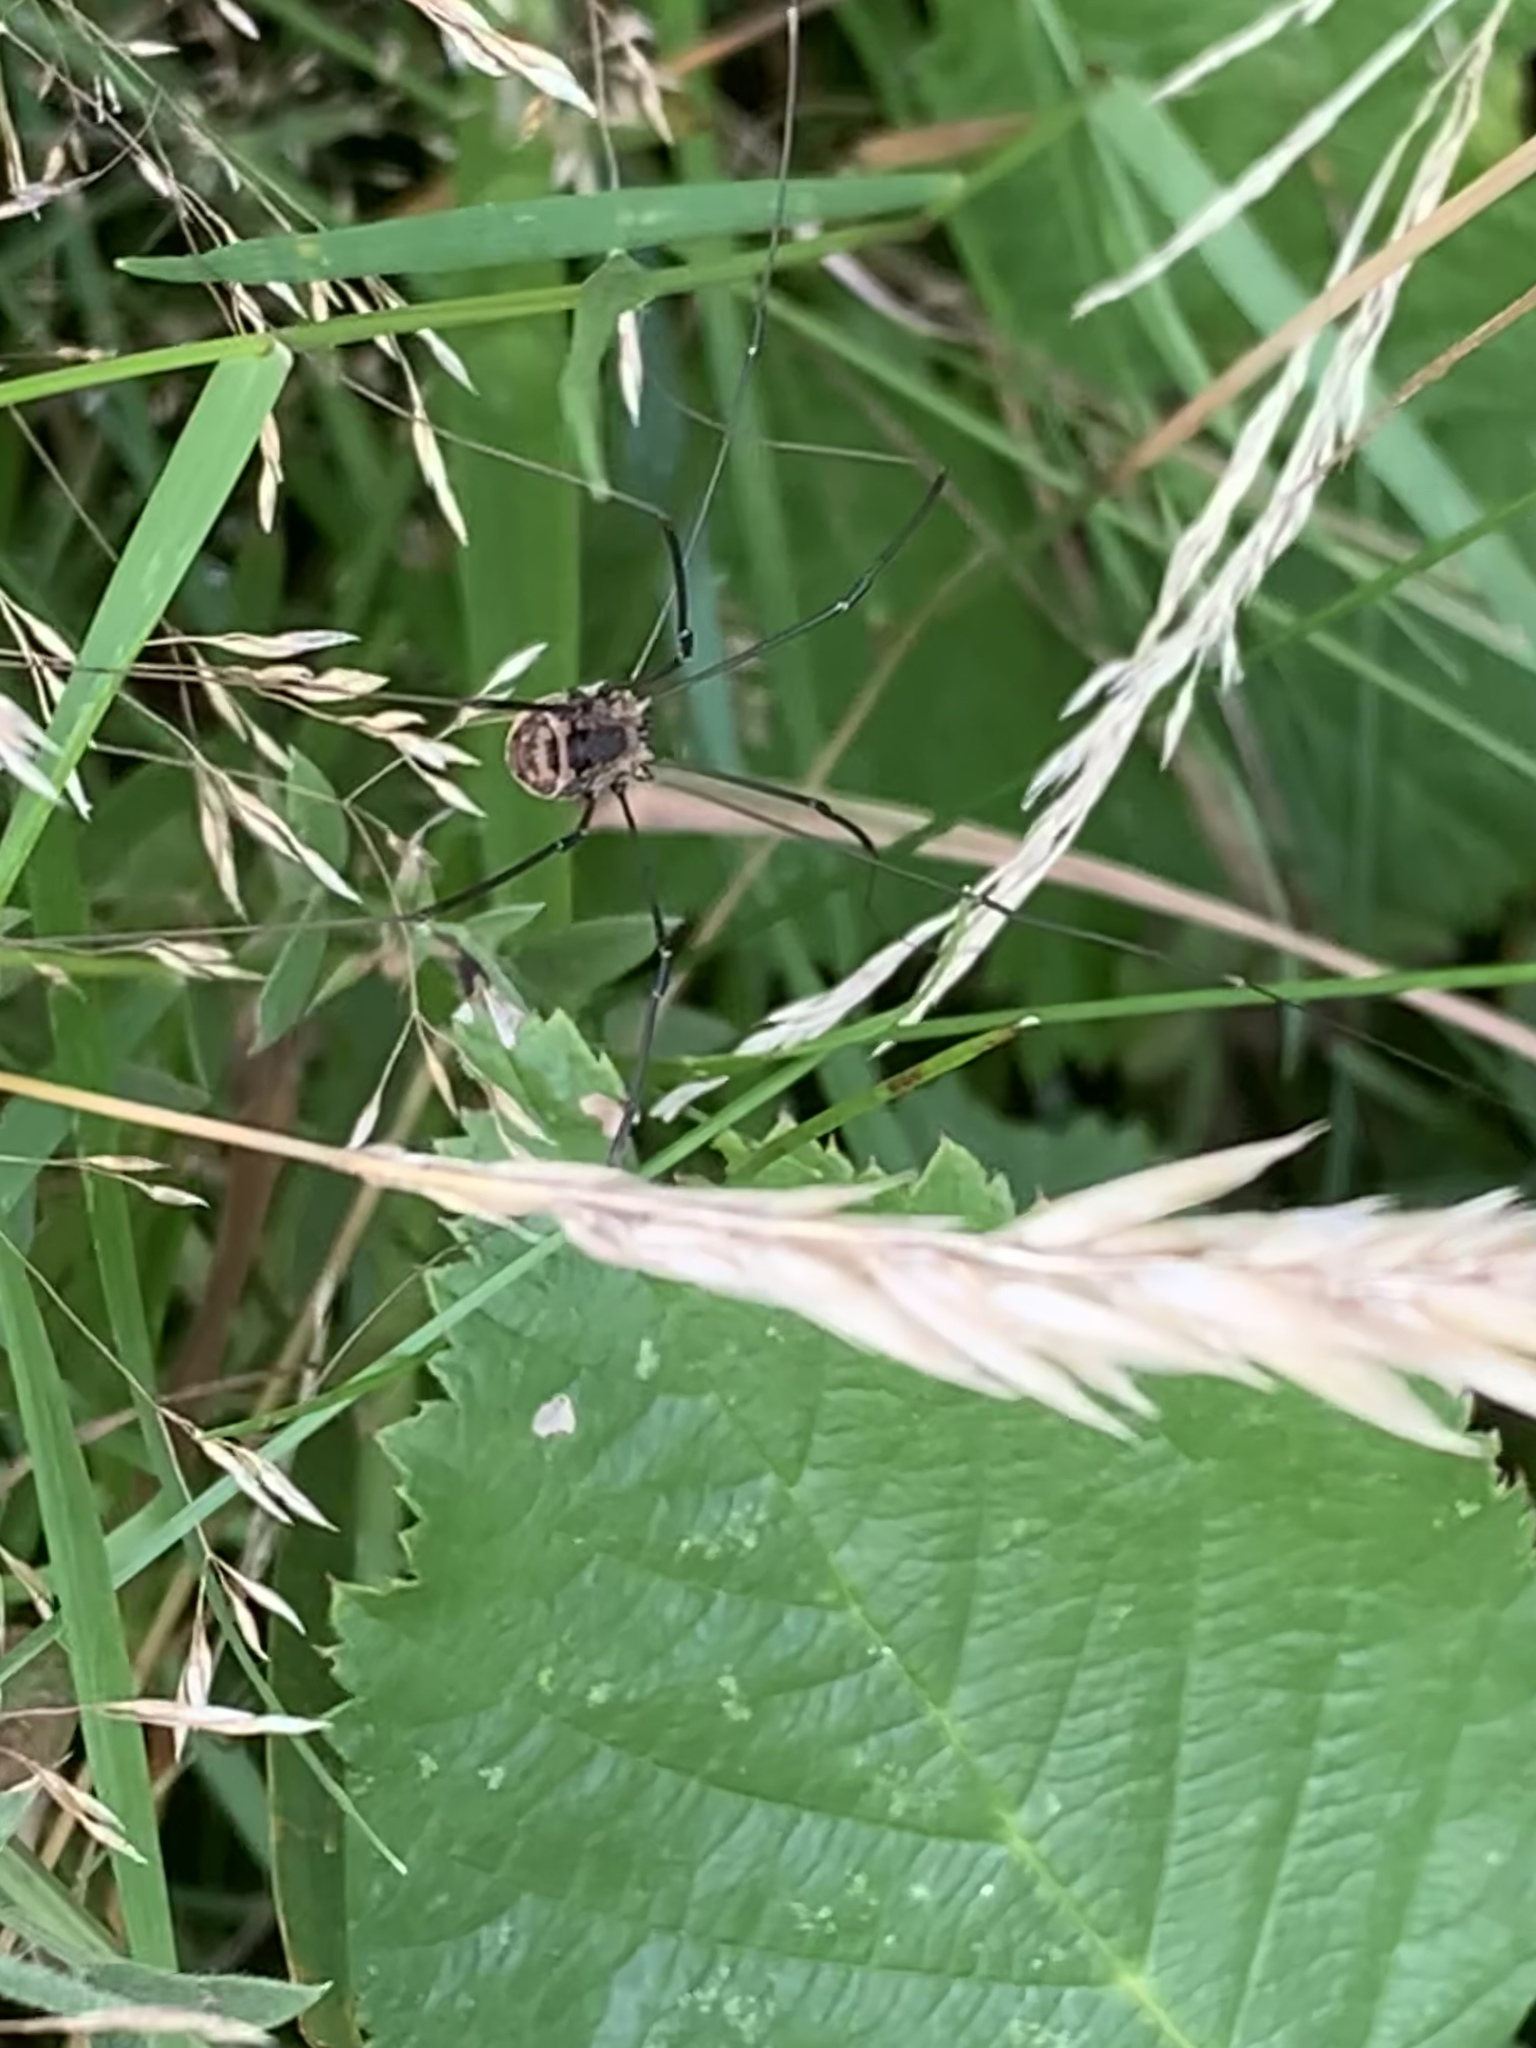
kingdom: Animalia
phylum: Arthropoda
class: Arachnida
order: Opiliones
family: Sclerosomatidae
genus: Leiobunum
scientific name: Leiobunum rotundum
